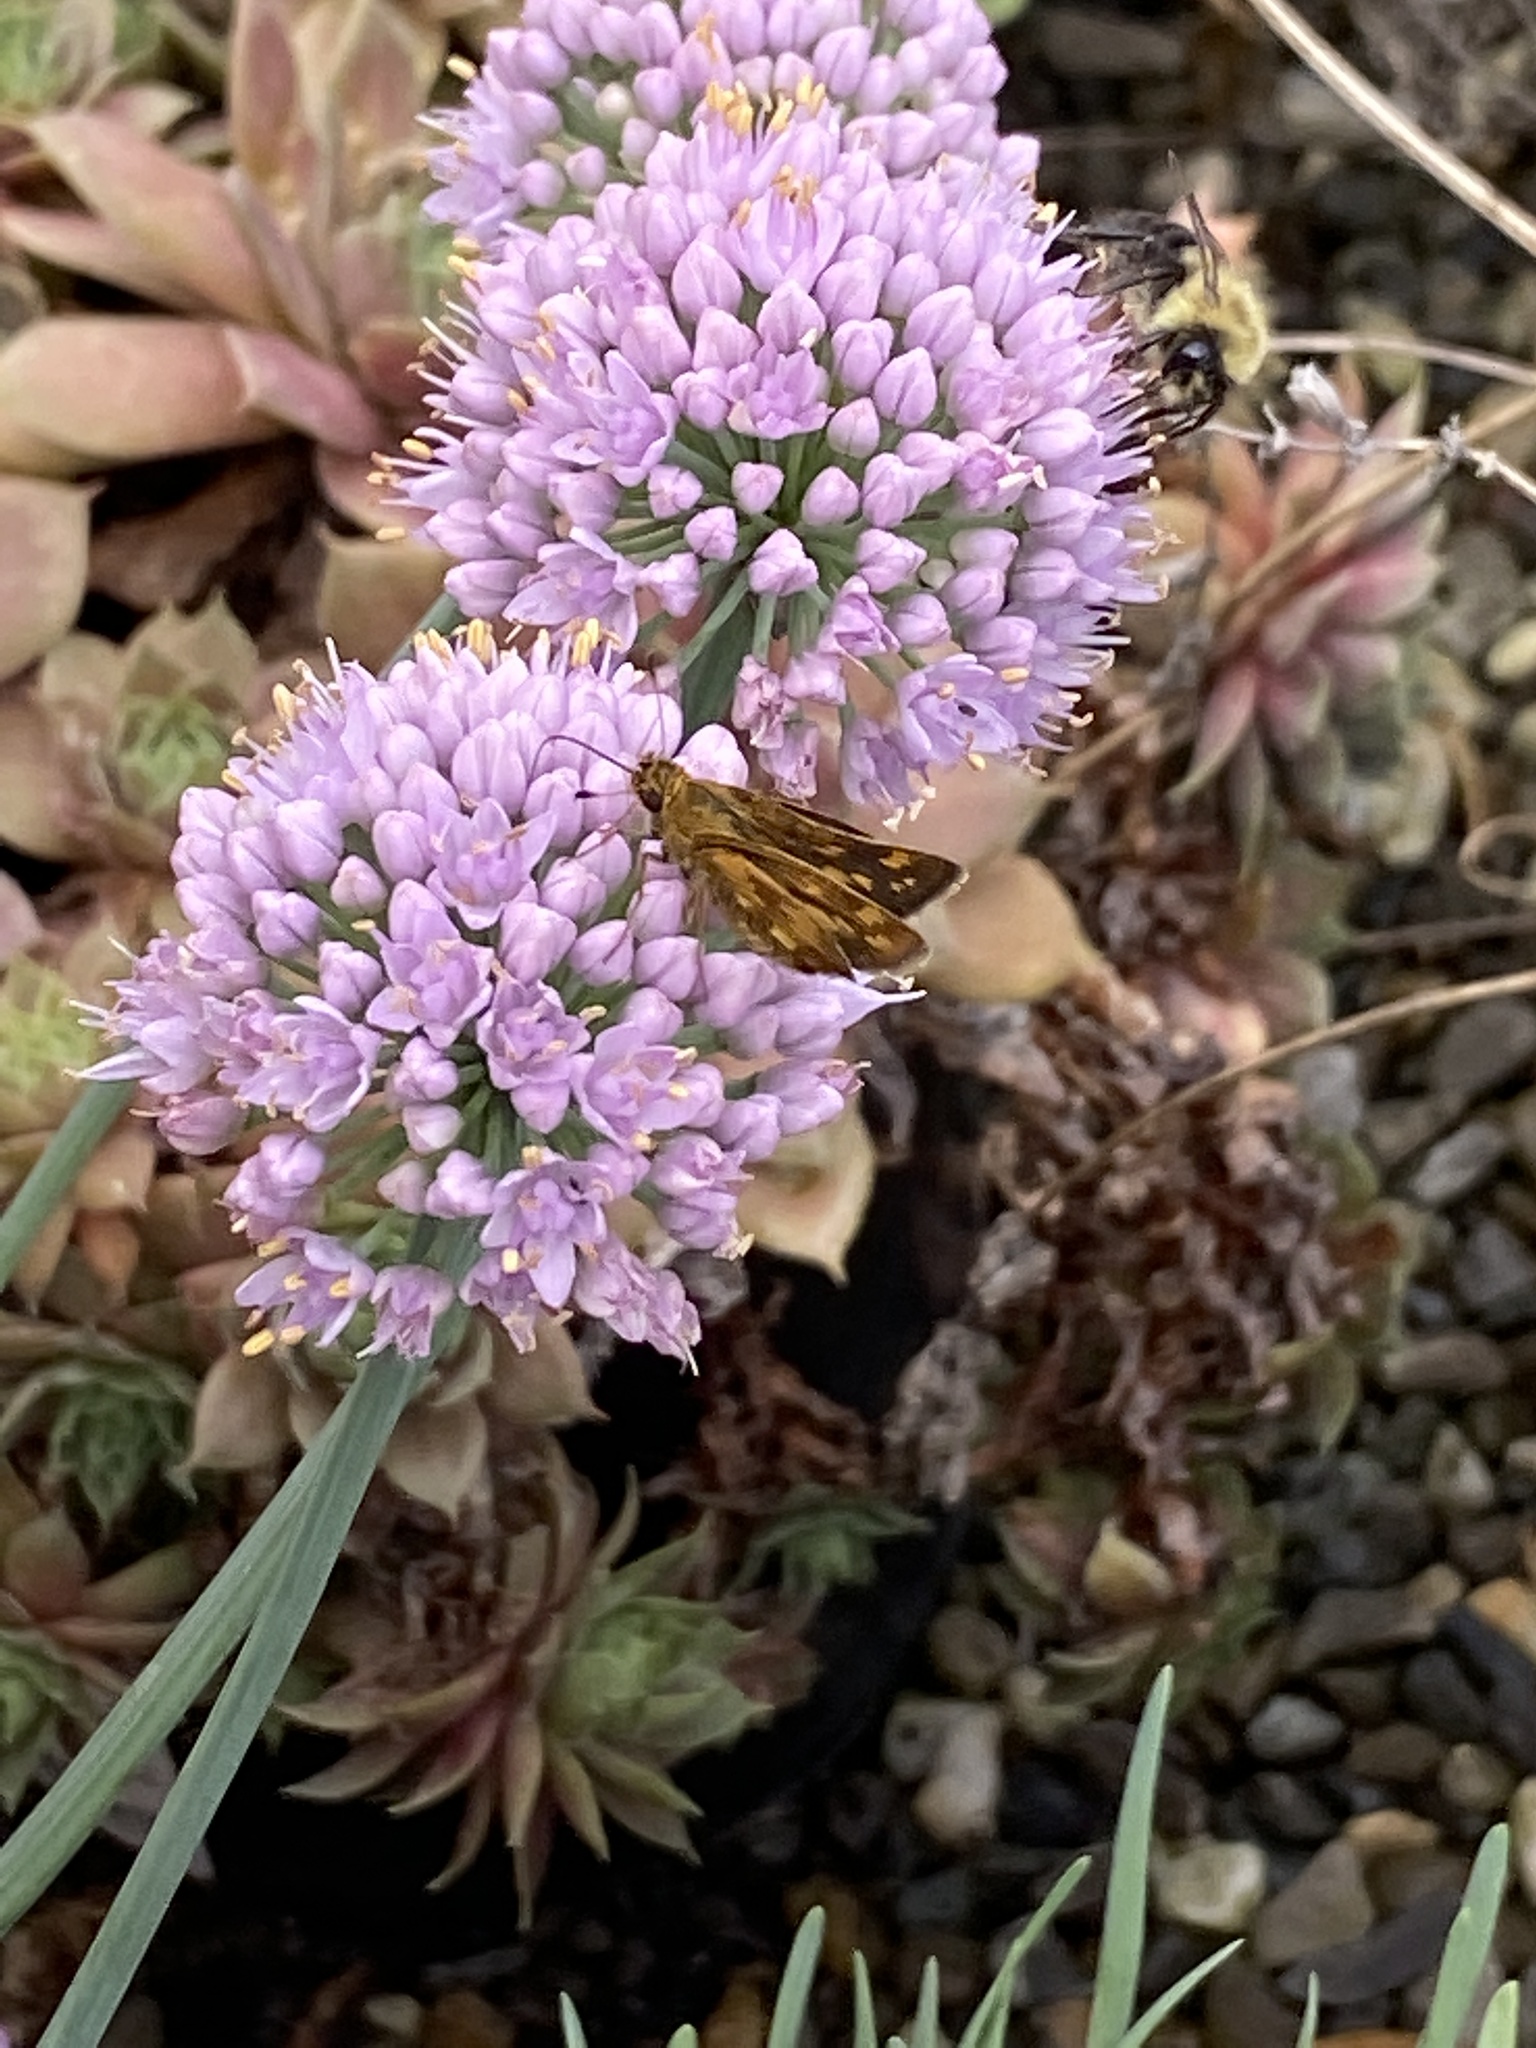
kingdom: Animalia
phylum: Arthropoda
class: Insecta
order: Lepidoptera
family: Hesperiidae
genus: Polites
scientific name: Polites coras
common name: Peck's skipper
